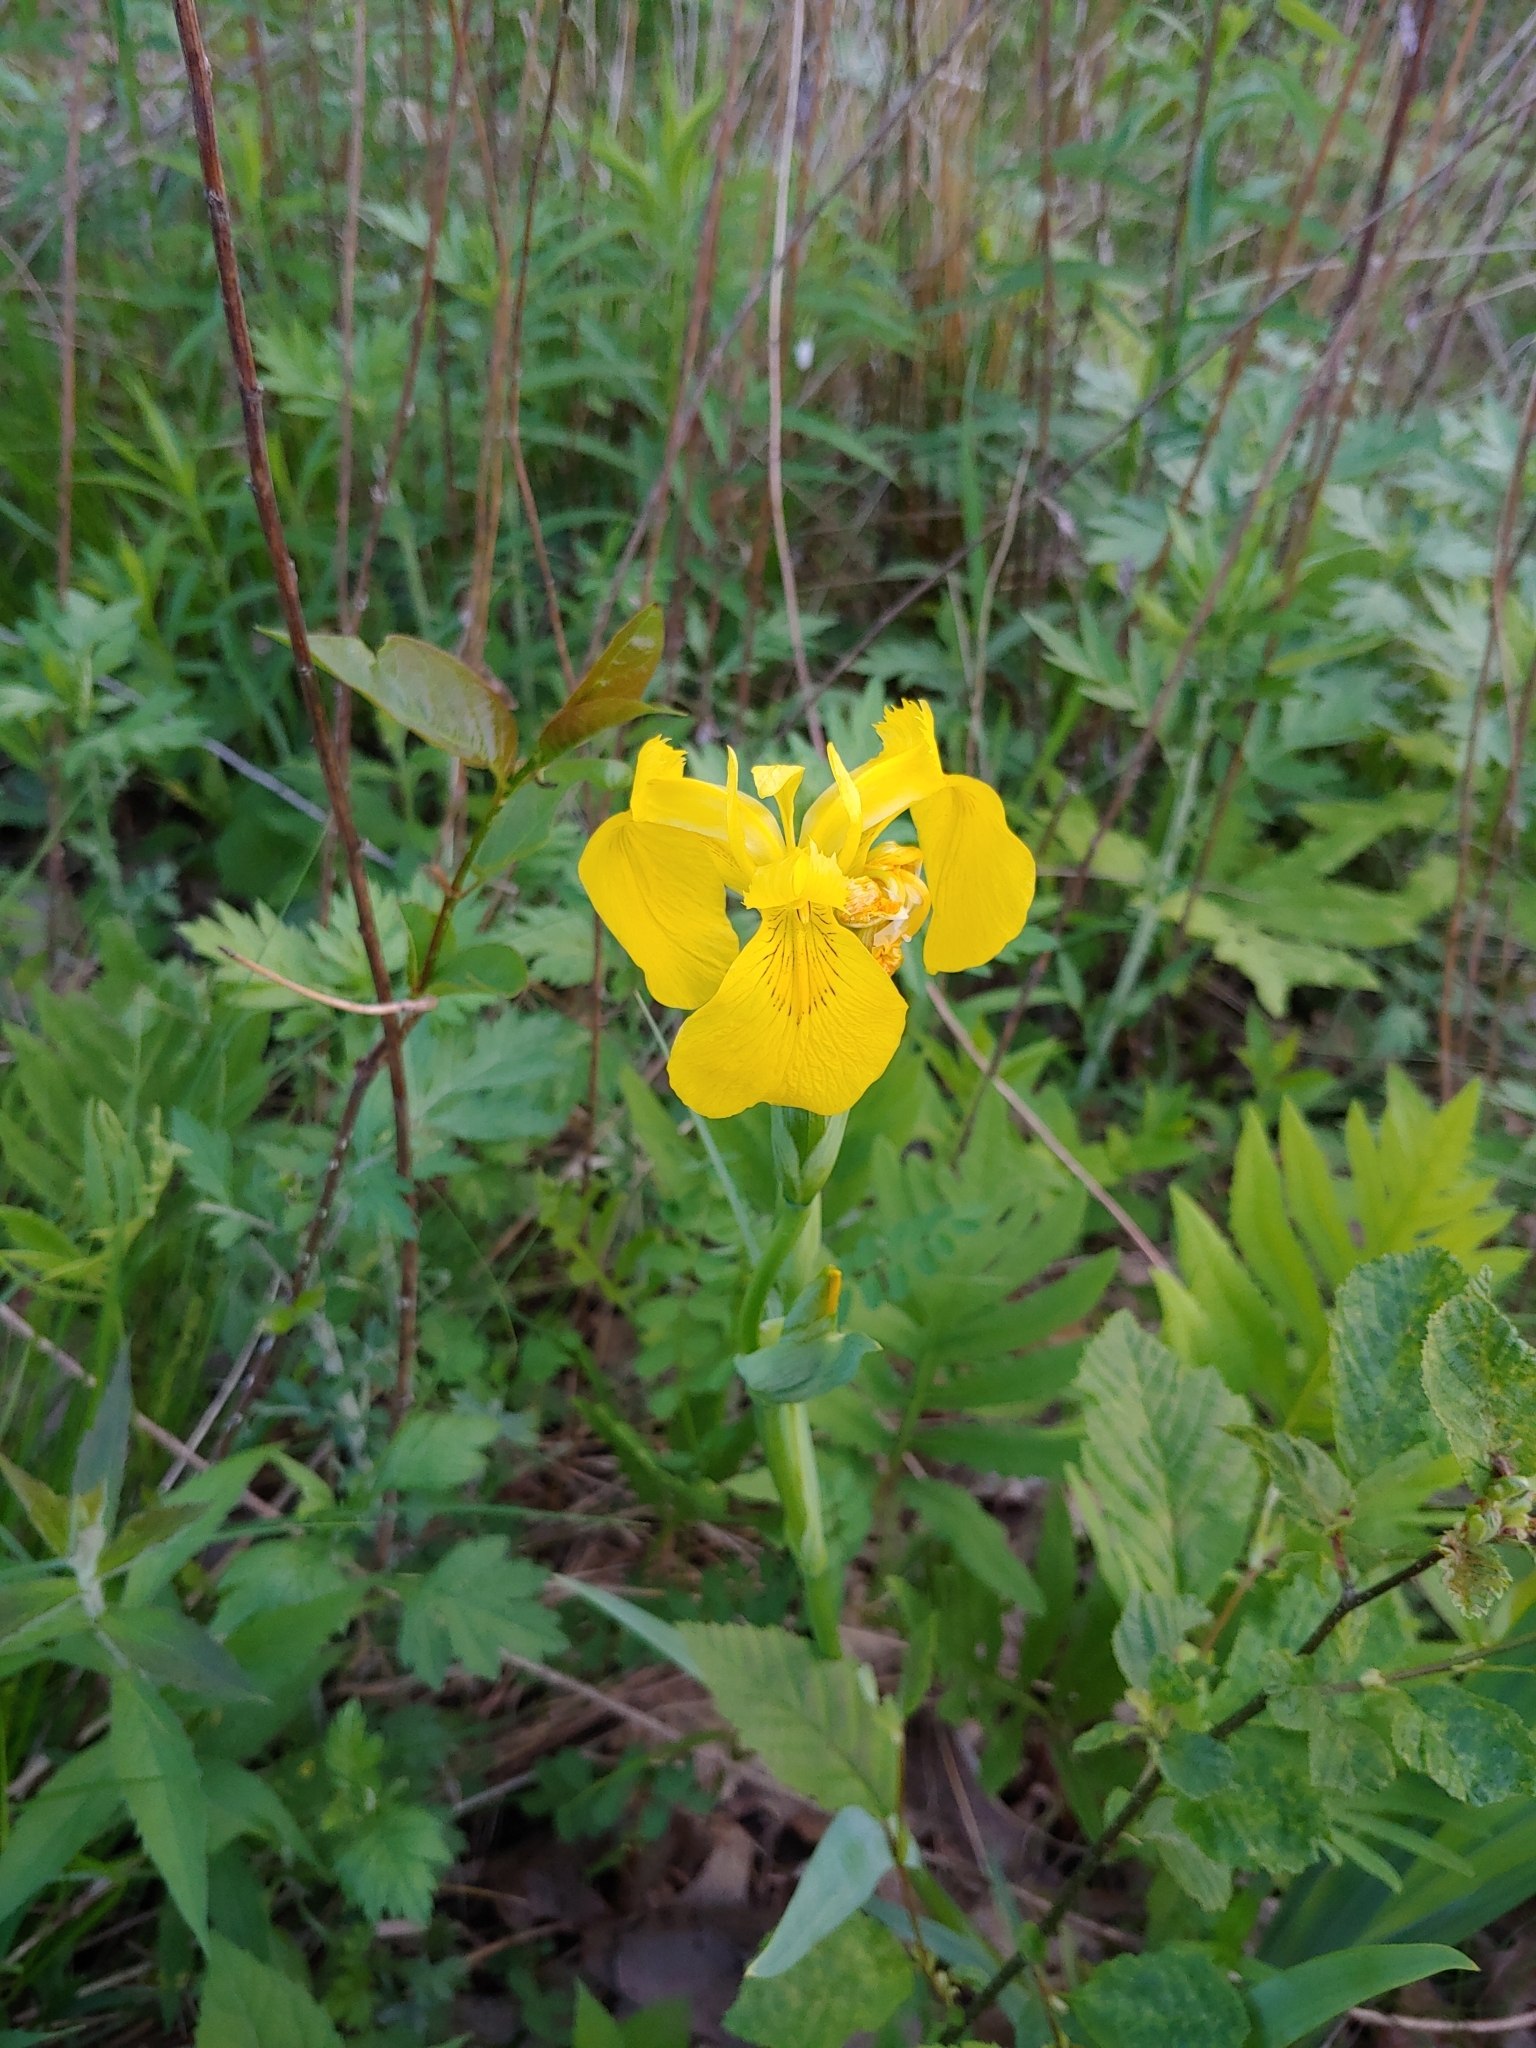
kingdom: Plantae
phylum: Tracheophyta
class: Liliopsida
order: Asparagales
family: Iridaceae
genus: Iris
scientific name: Iris pseudacorus
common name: Yellow flag
